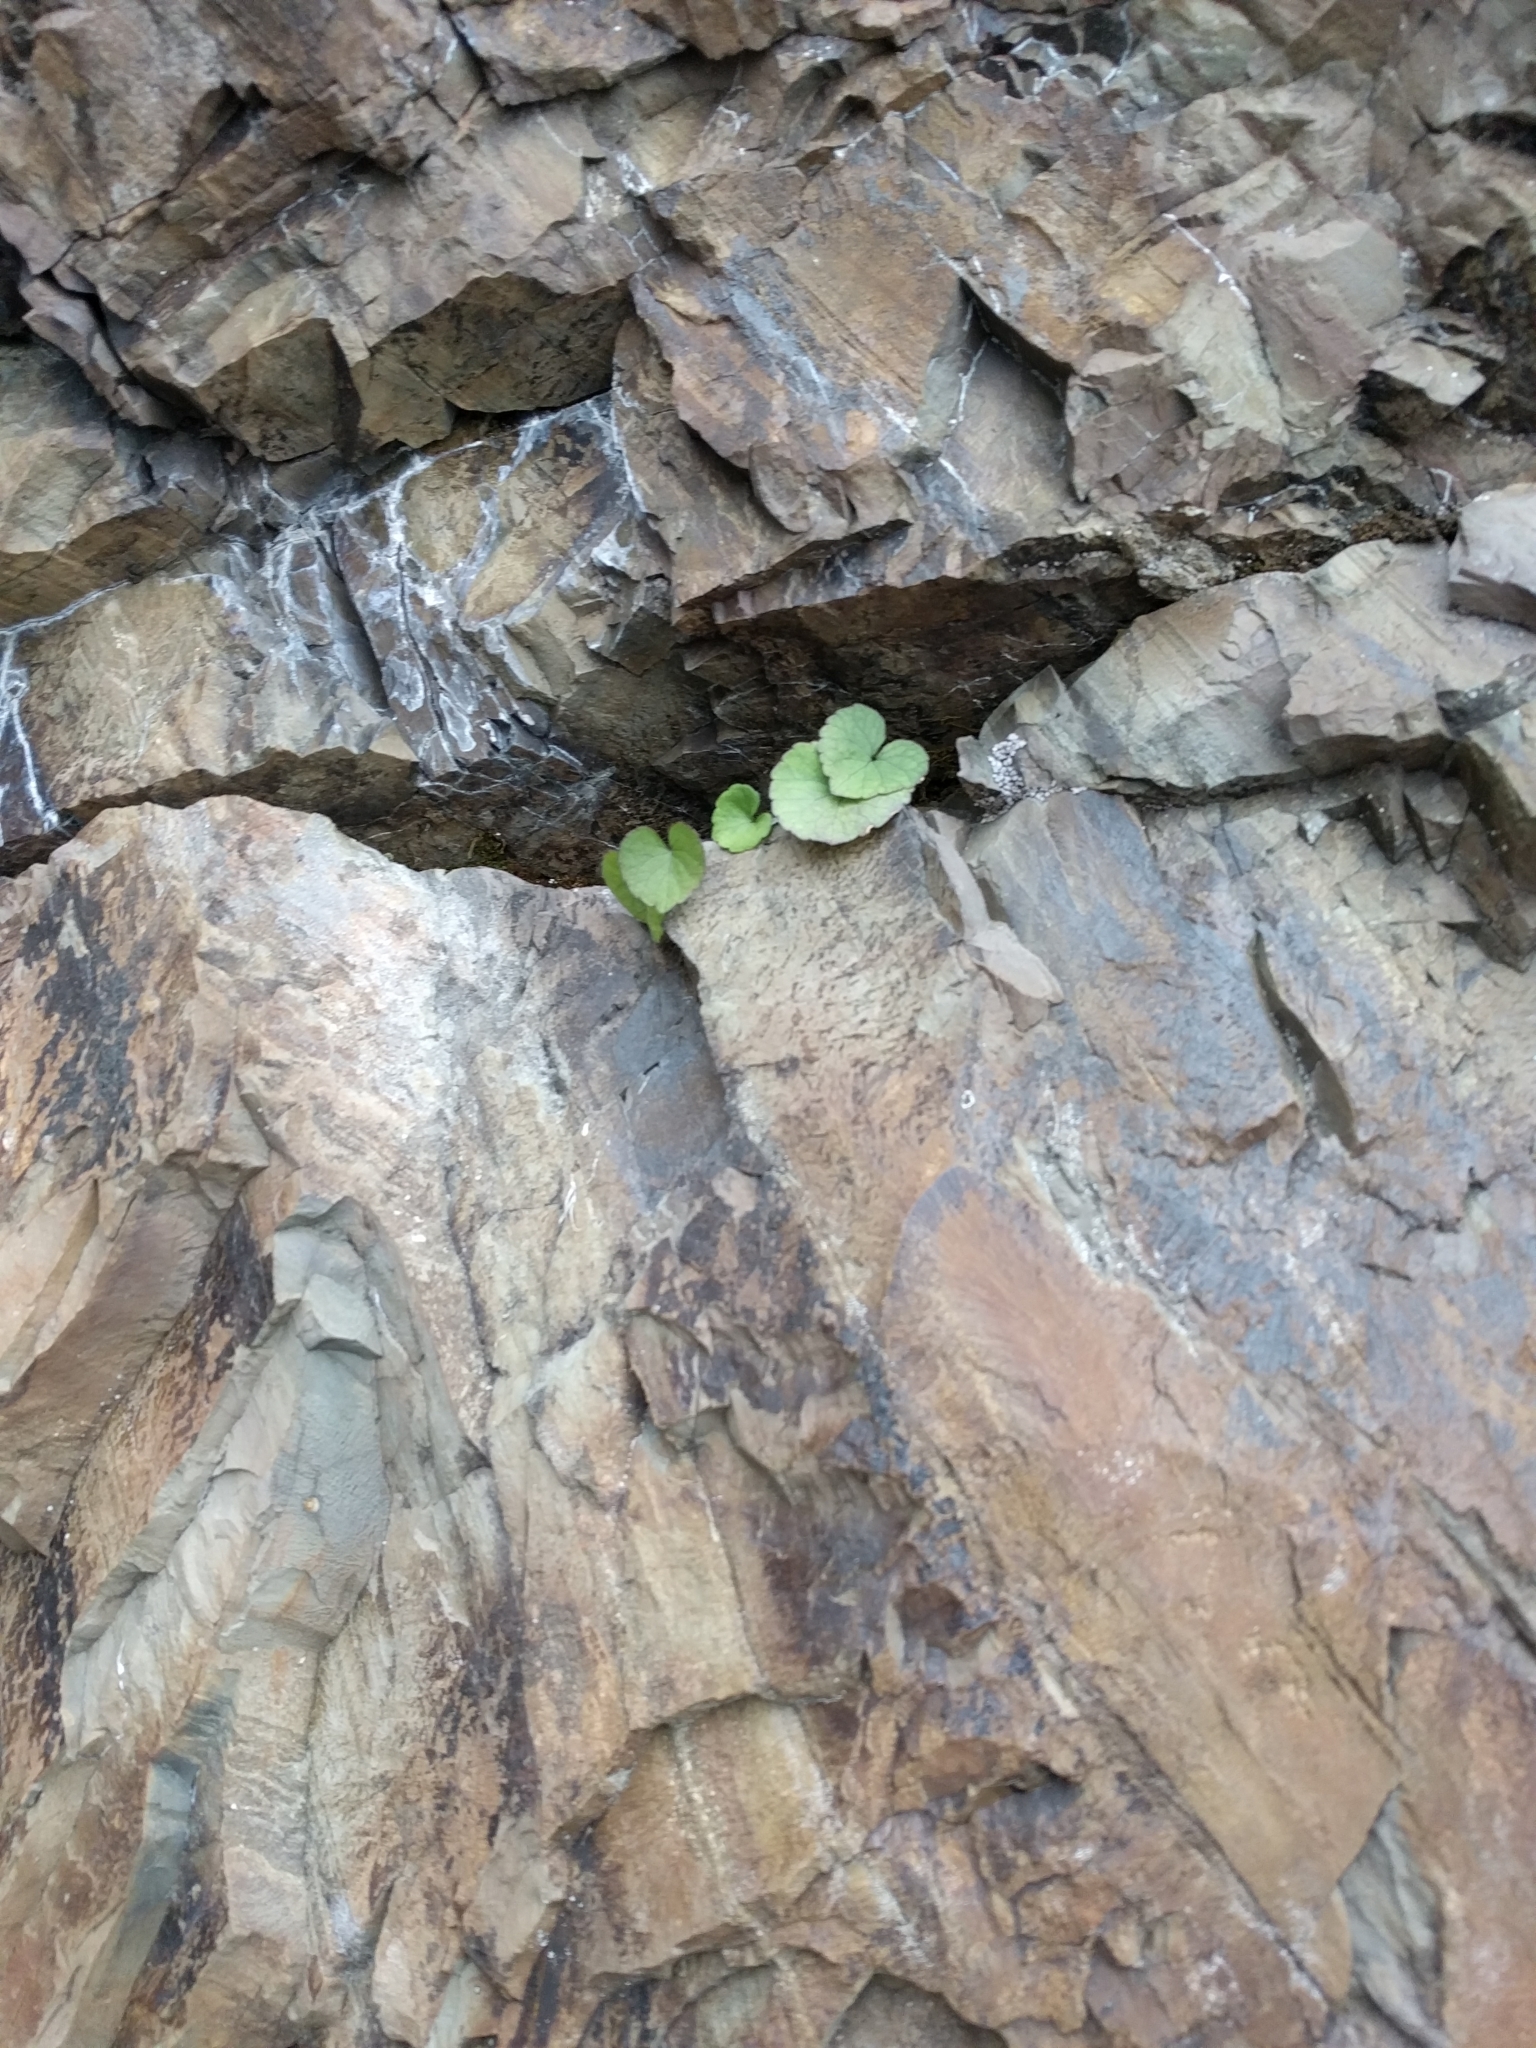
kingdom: Plantae
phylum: Tracheophyta
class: Magnoliopsida
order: Malpighiales
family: Violaceae
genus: Viola
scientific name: Viola flettii
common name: Rock violet
